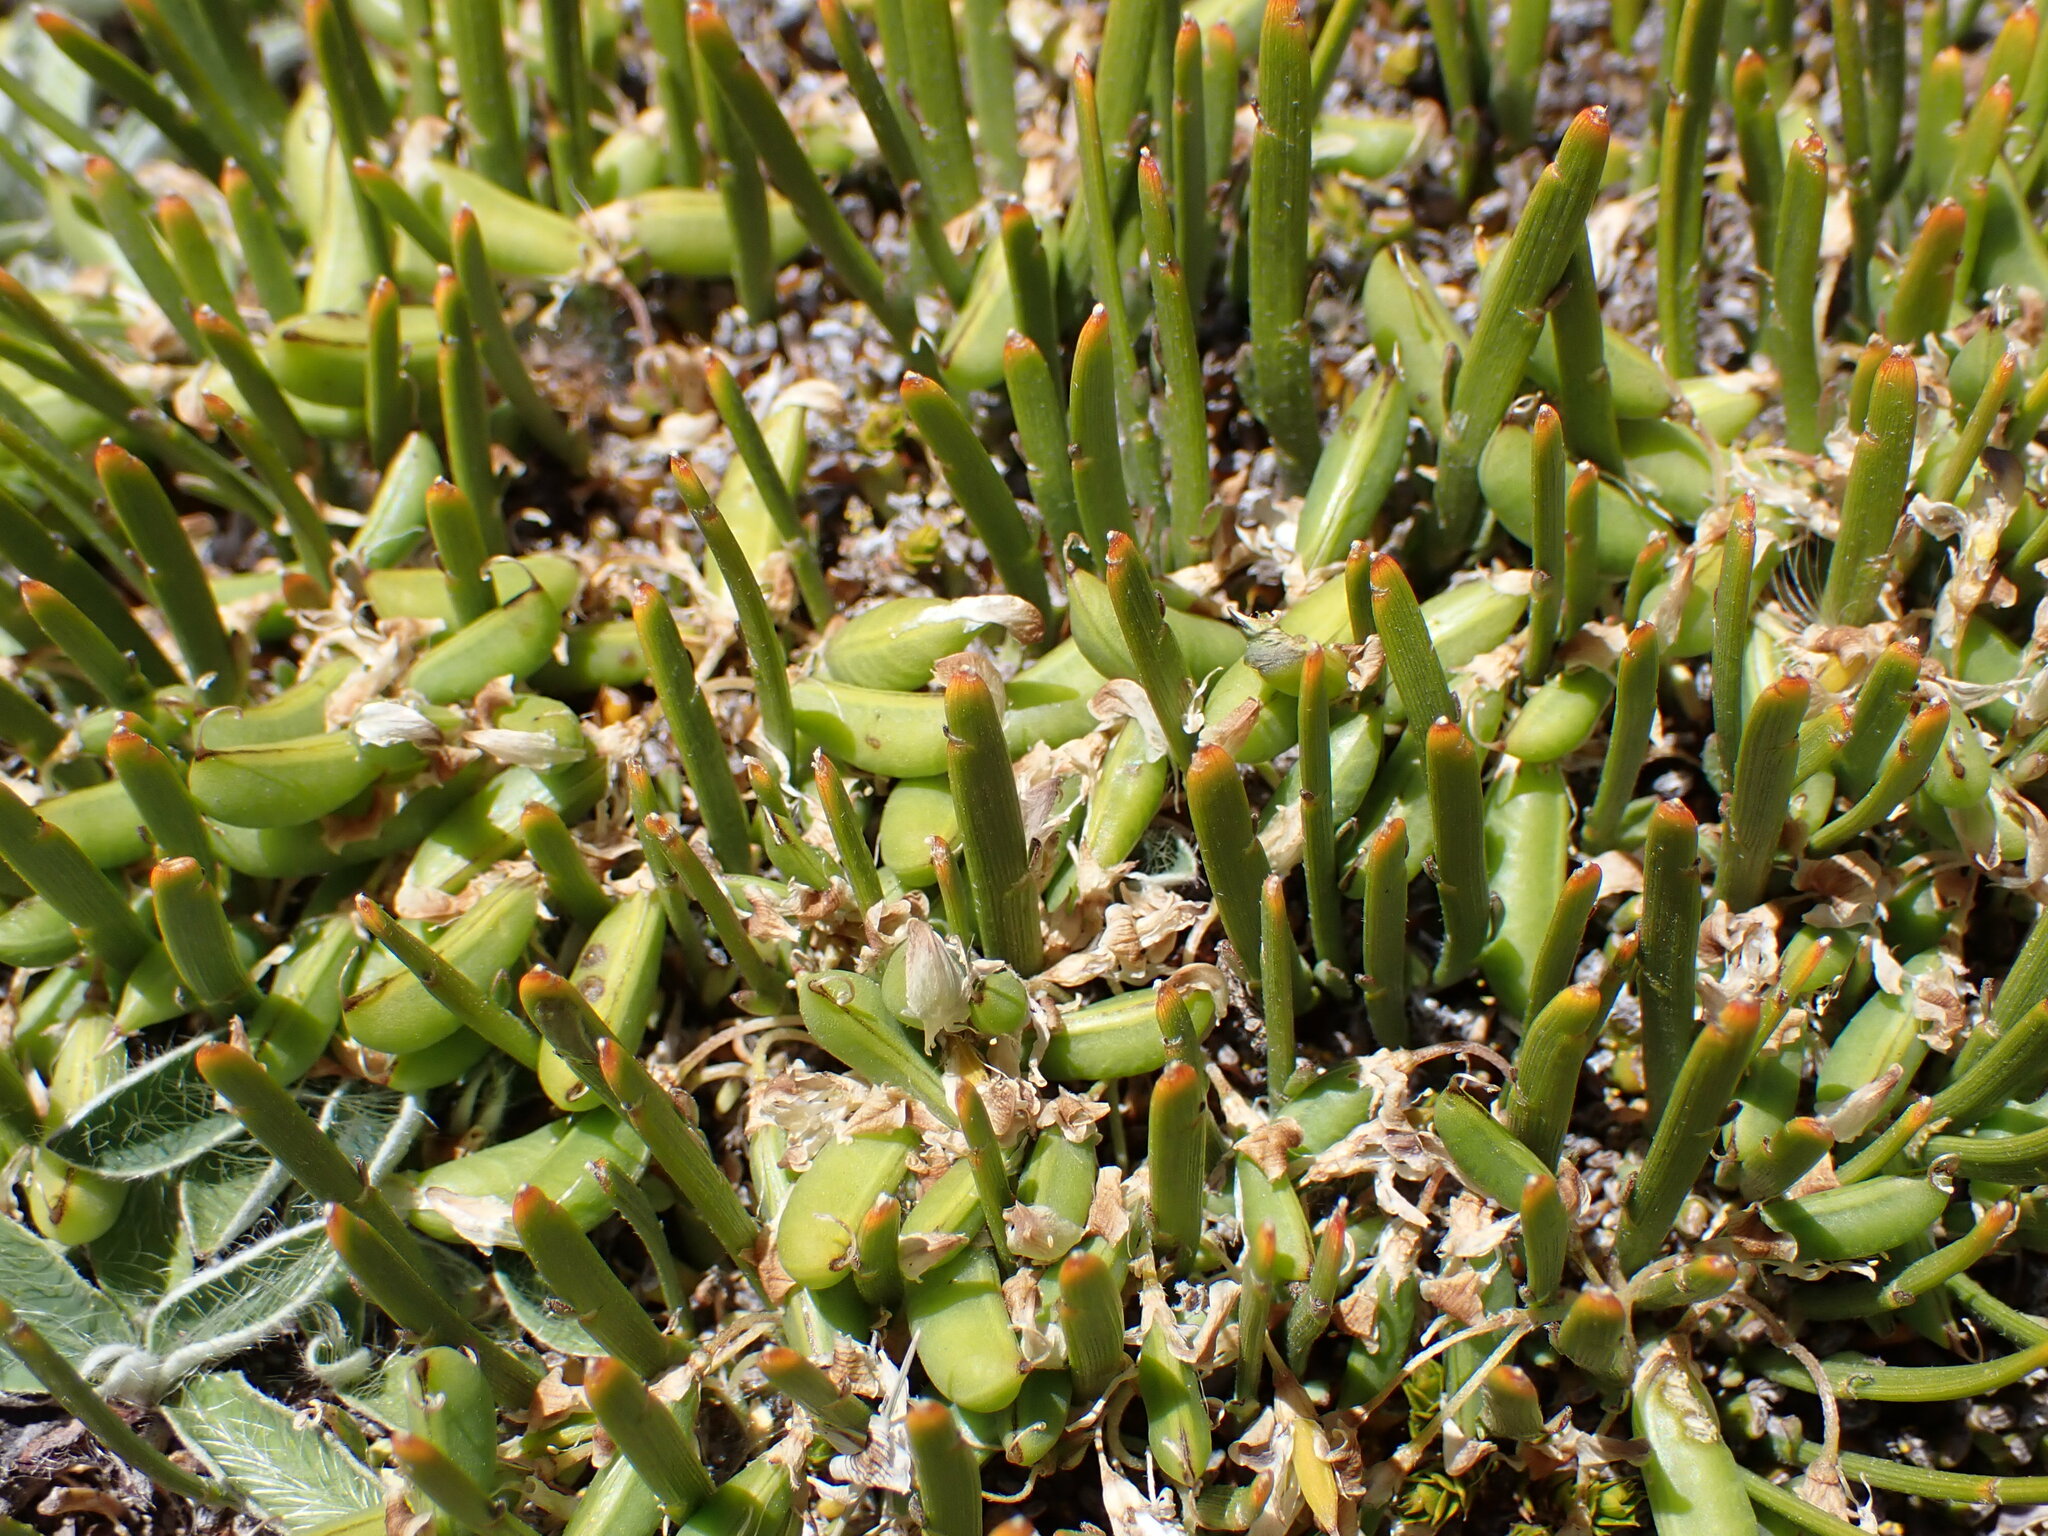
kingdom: Plantae
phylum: Tracheophyta
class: Magnoliopsida
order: Fabales
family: Fabaceae
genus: Carmichaelia
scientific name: Carmichaelia vexillata
